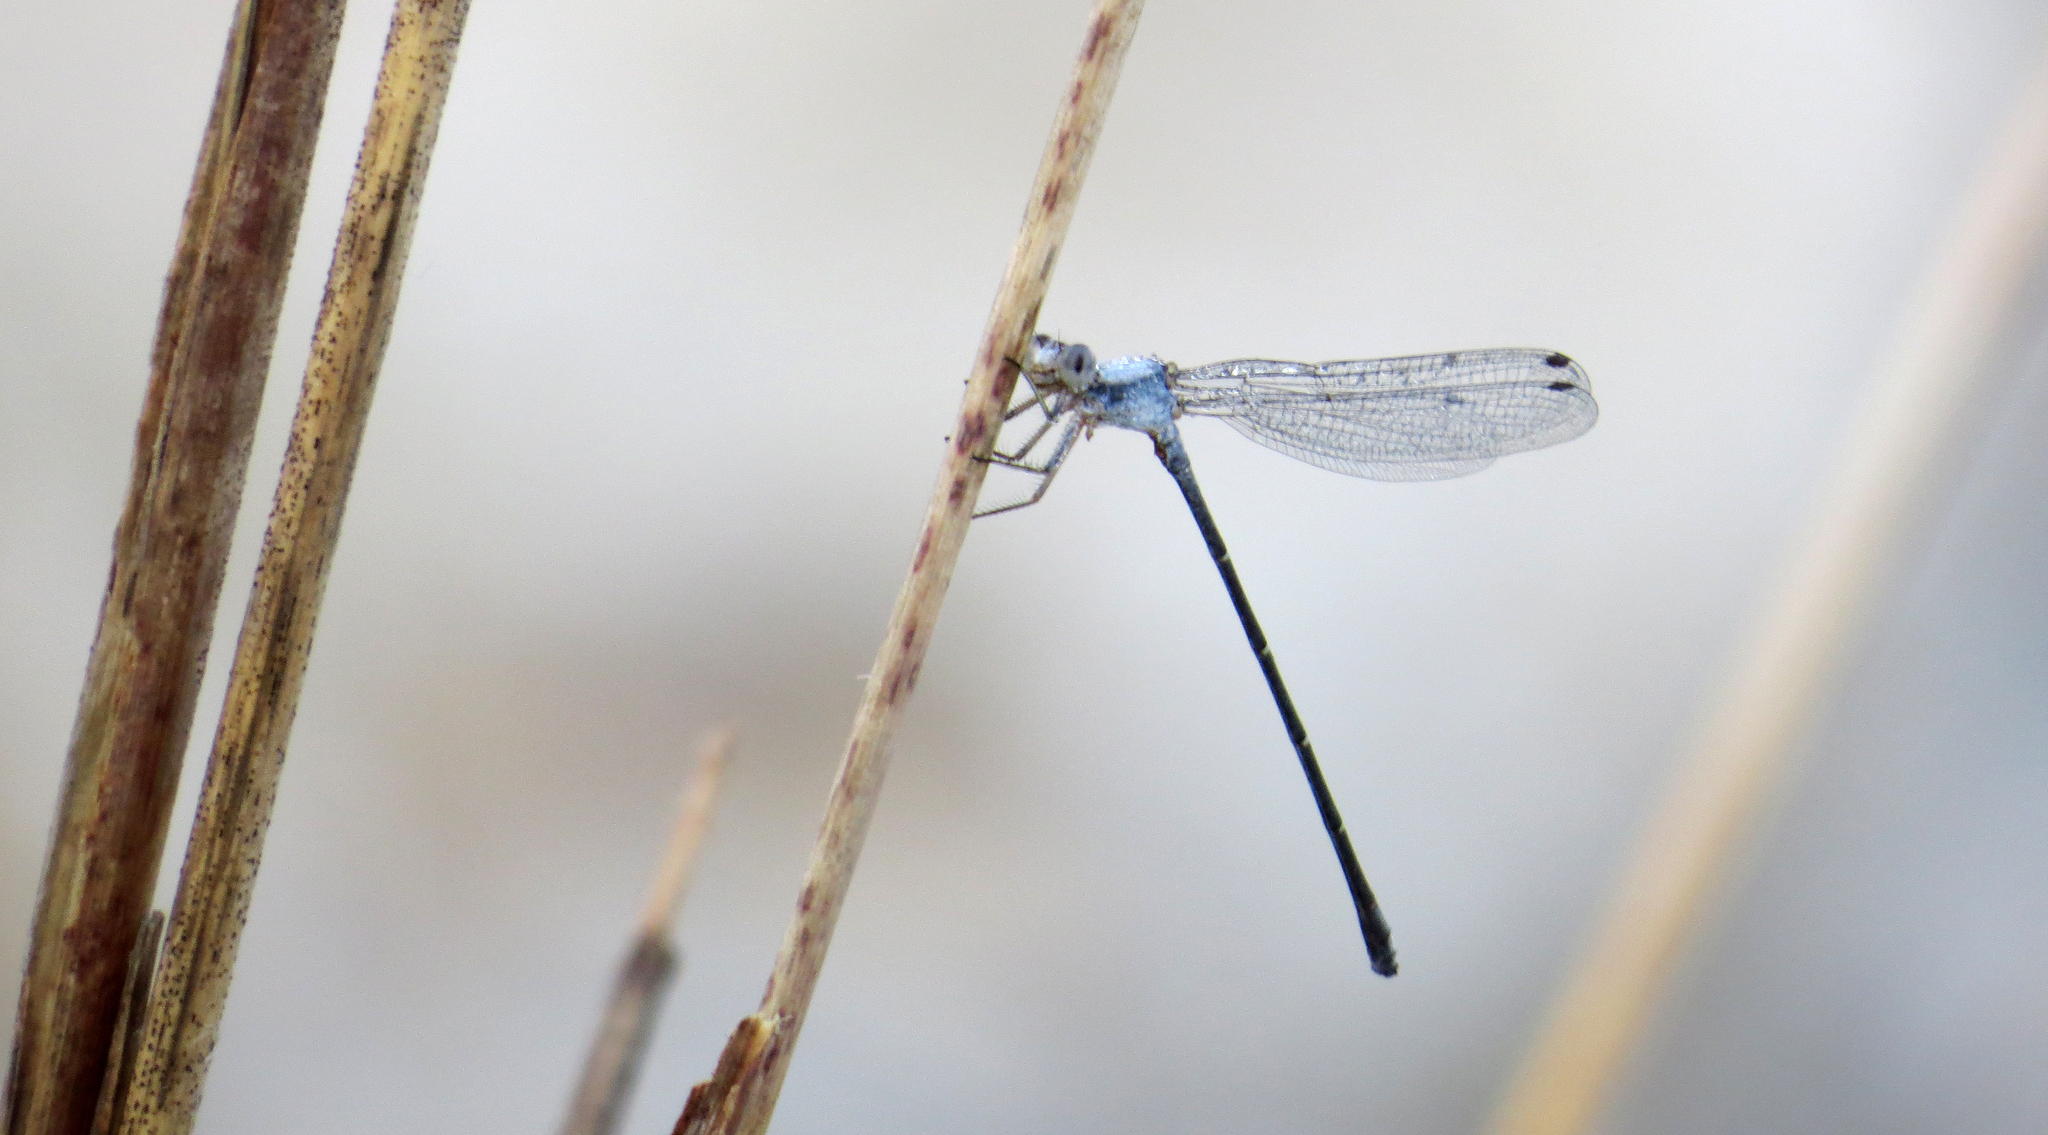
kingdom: Animalia
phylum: Arthropoda
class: Insecta
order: Odonata
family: Coenagrionidae
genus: Argia
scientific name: Argia moesta
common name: Powdered dancer
